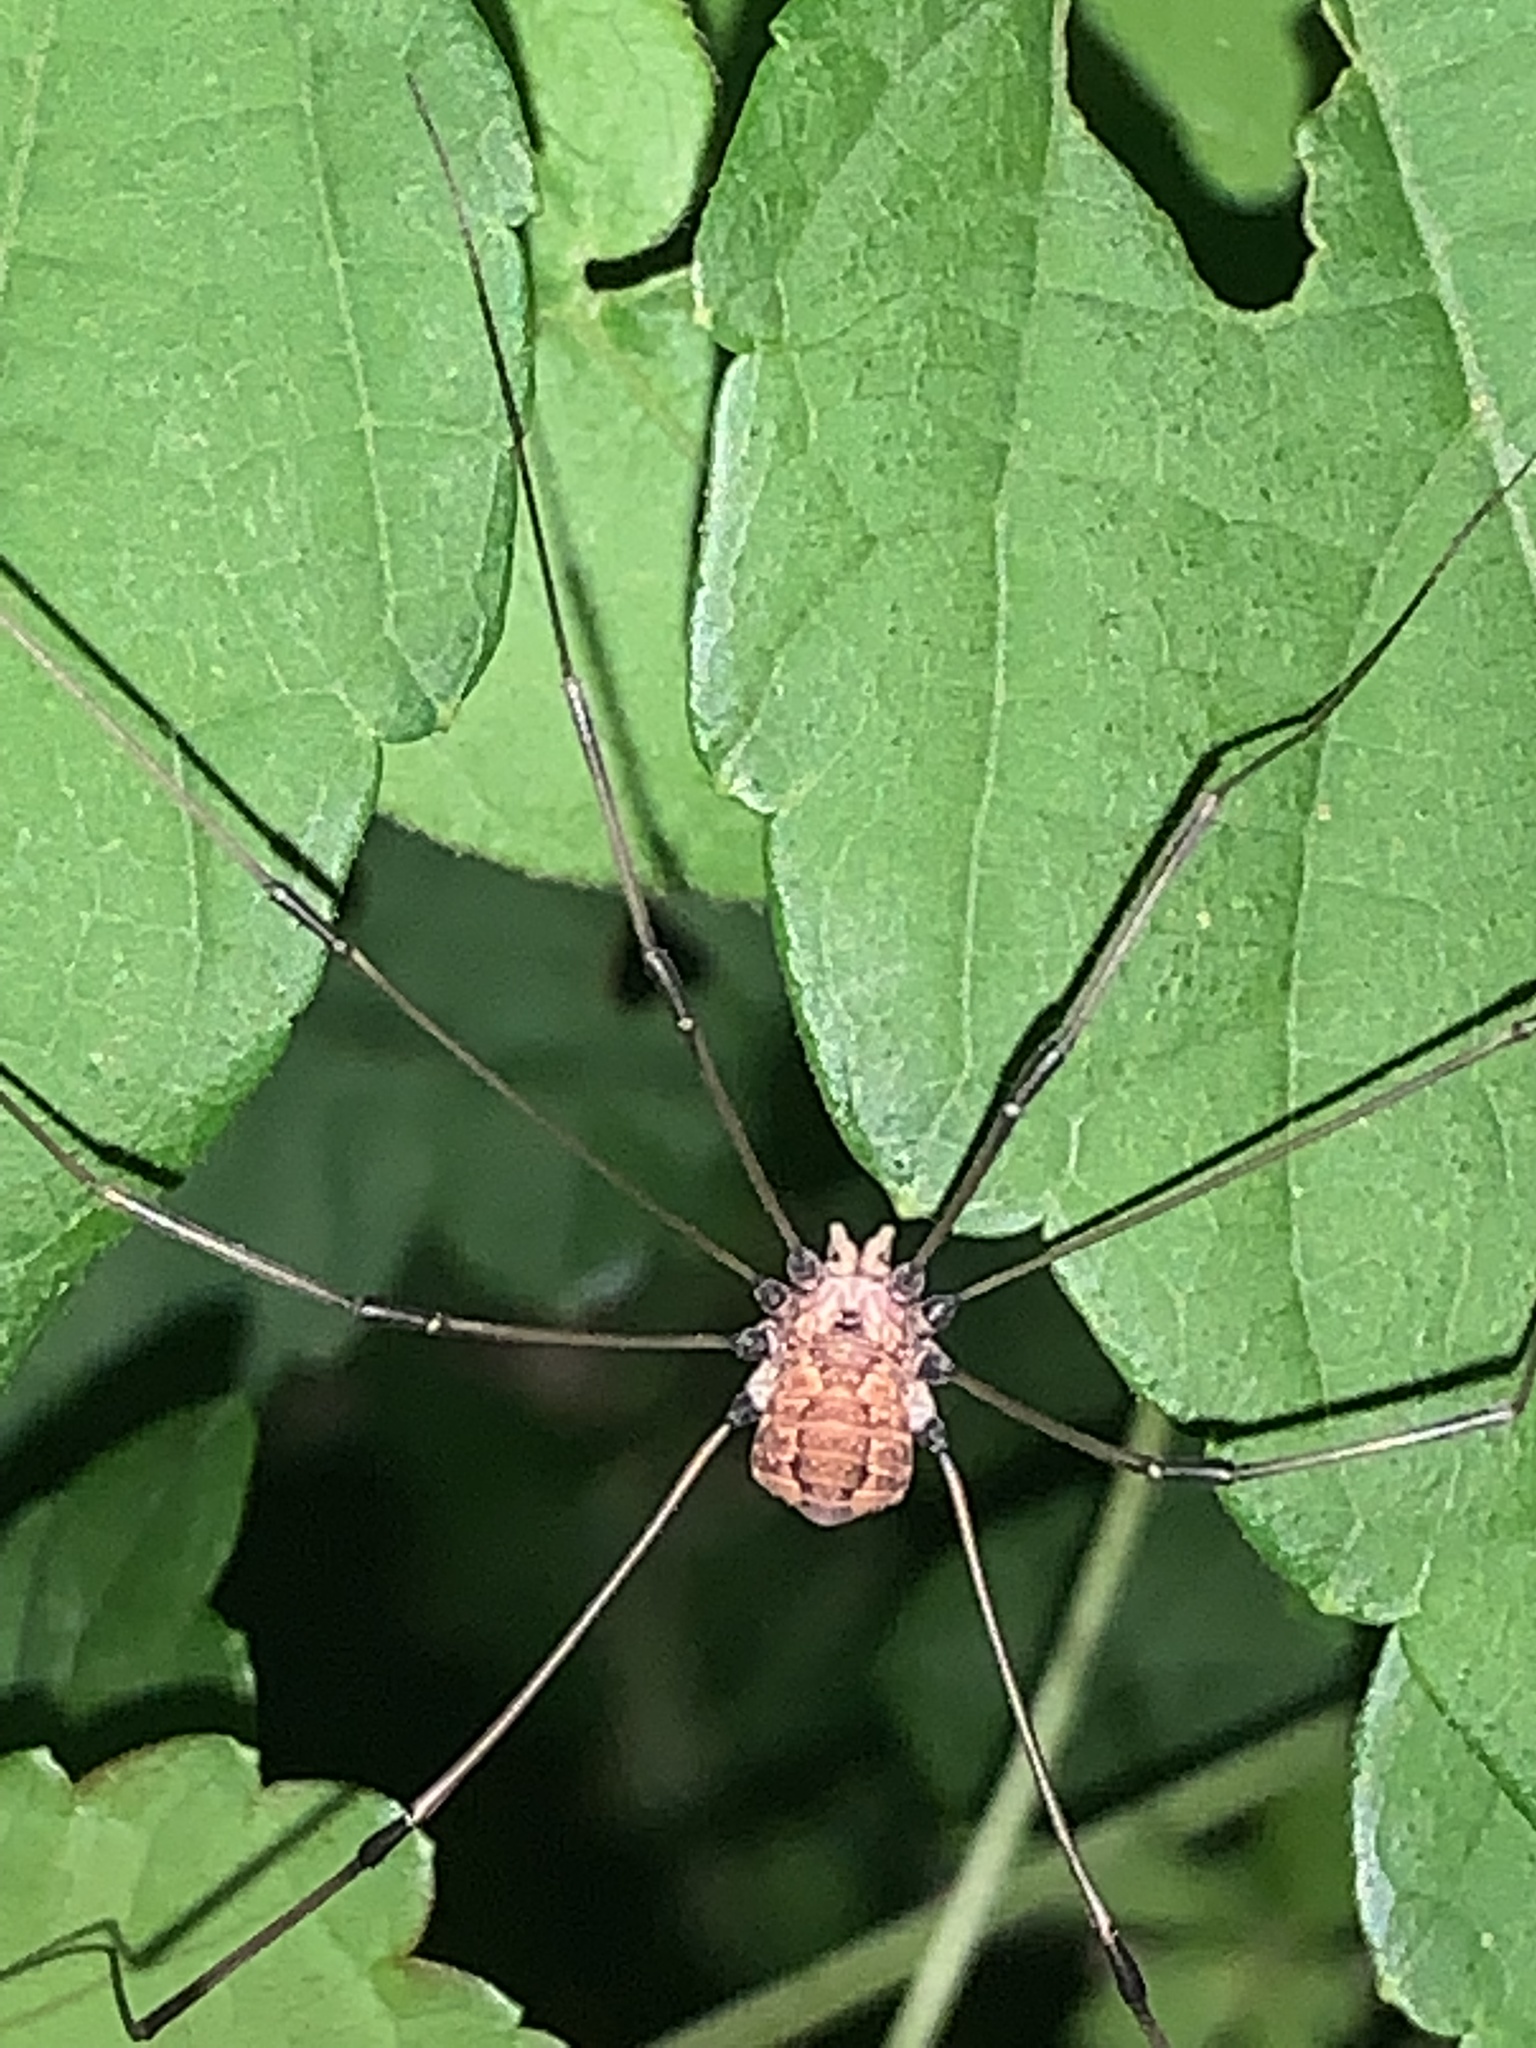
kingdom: Animalia
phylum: Arthropoda
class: Arachnida
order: Opiliones
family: Sclerosomatidae
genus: Leiobunum
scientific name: Leiobunum
